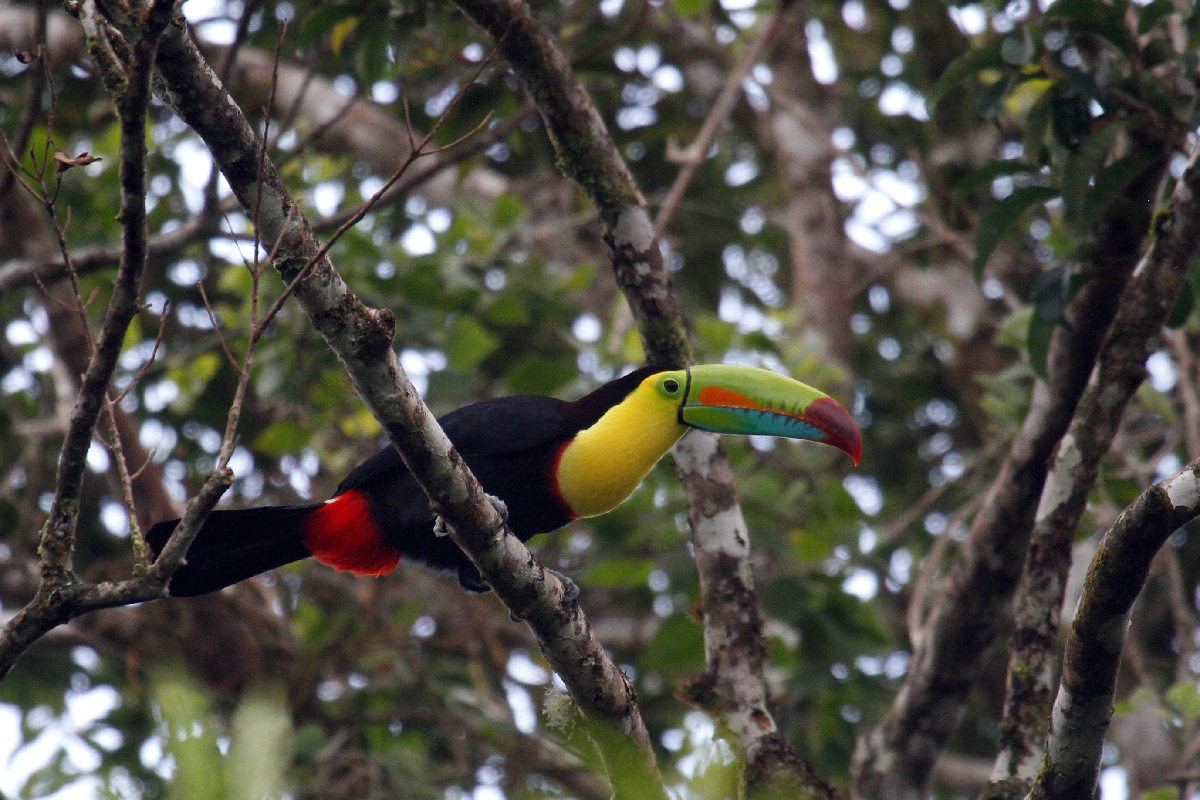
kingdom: Animalia
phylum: Chordata
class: Aves
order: Piciformes
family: Ramphastidae
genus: Ramphastos
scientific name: Ramphastos sulfuratus
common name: Keel-billed toucan
